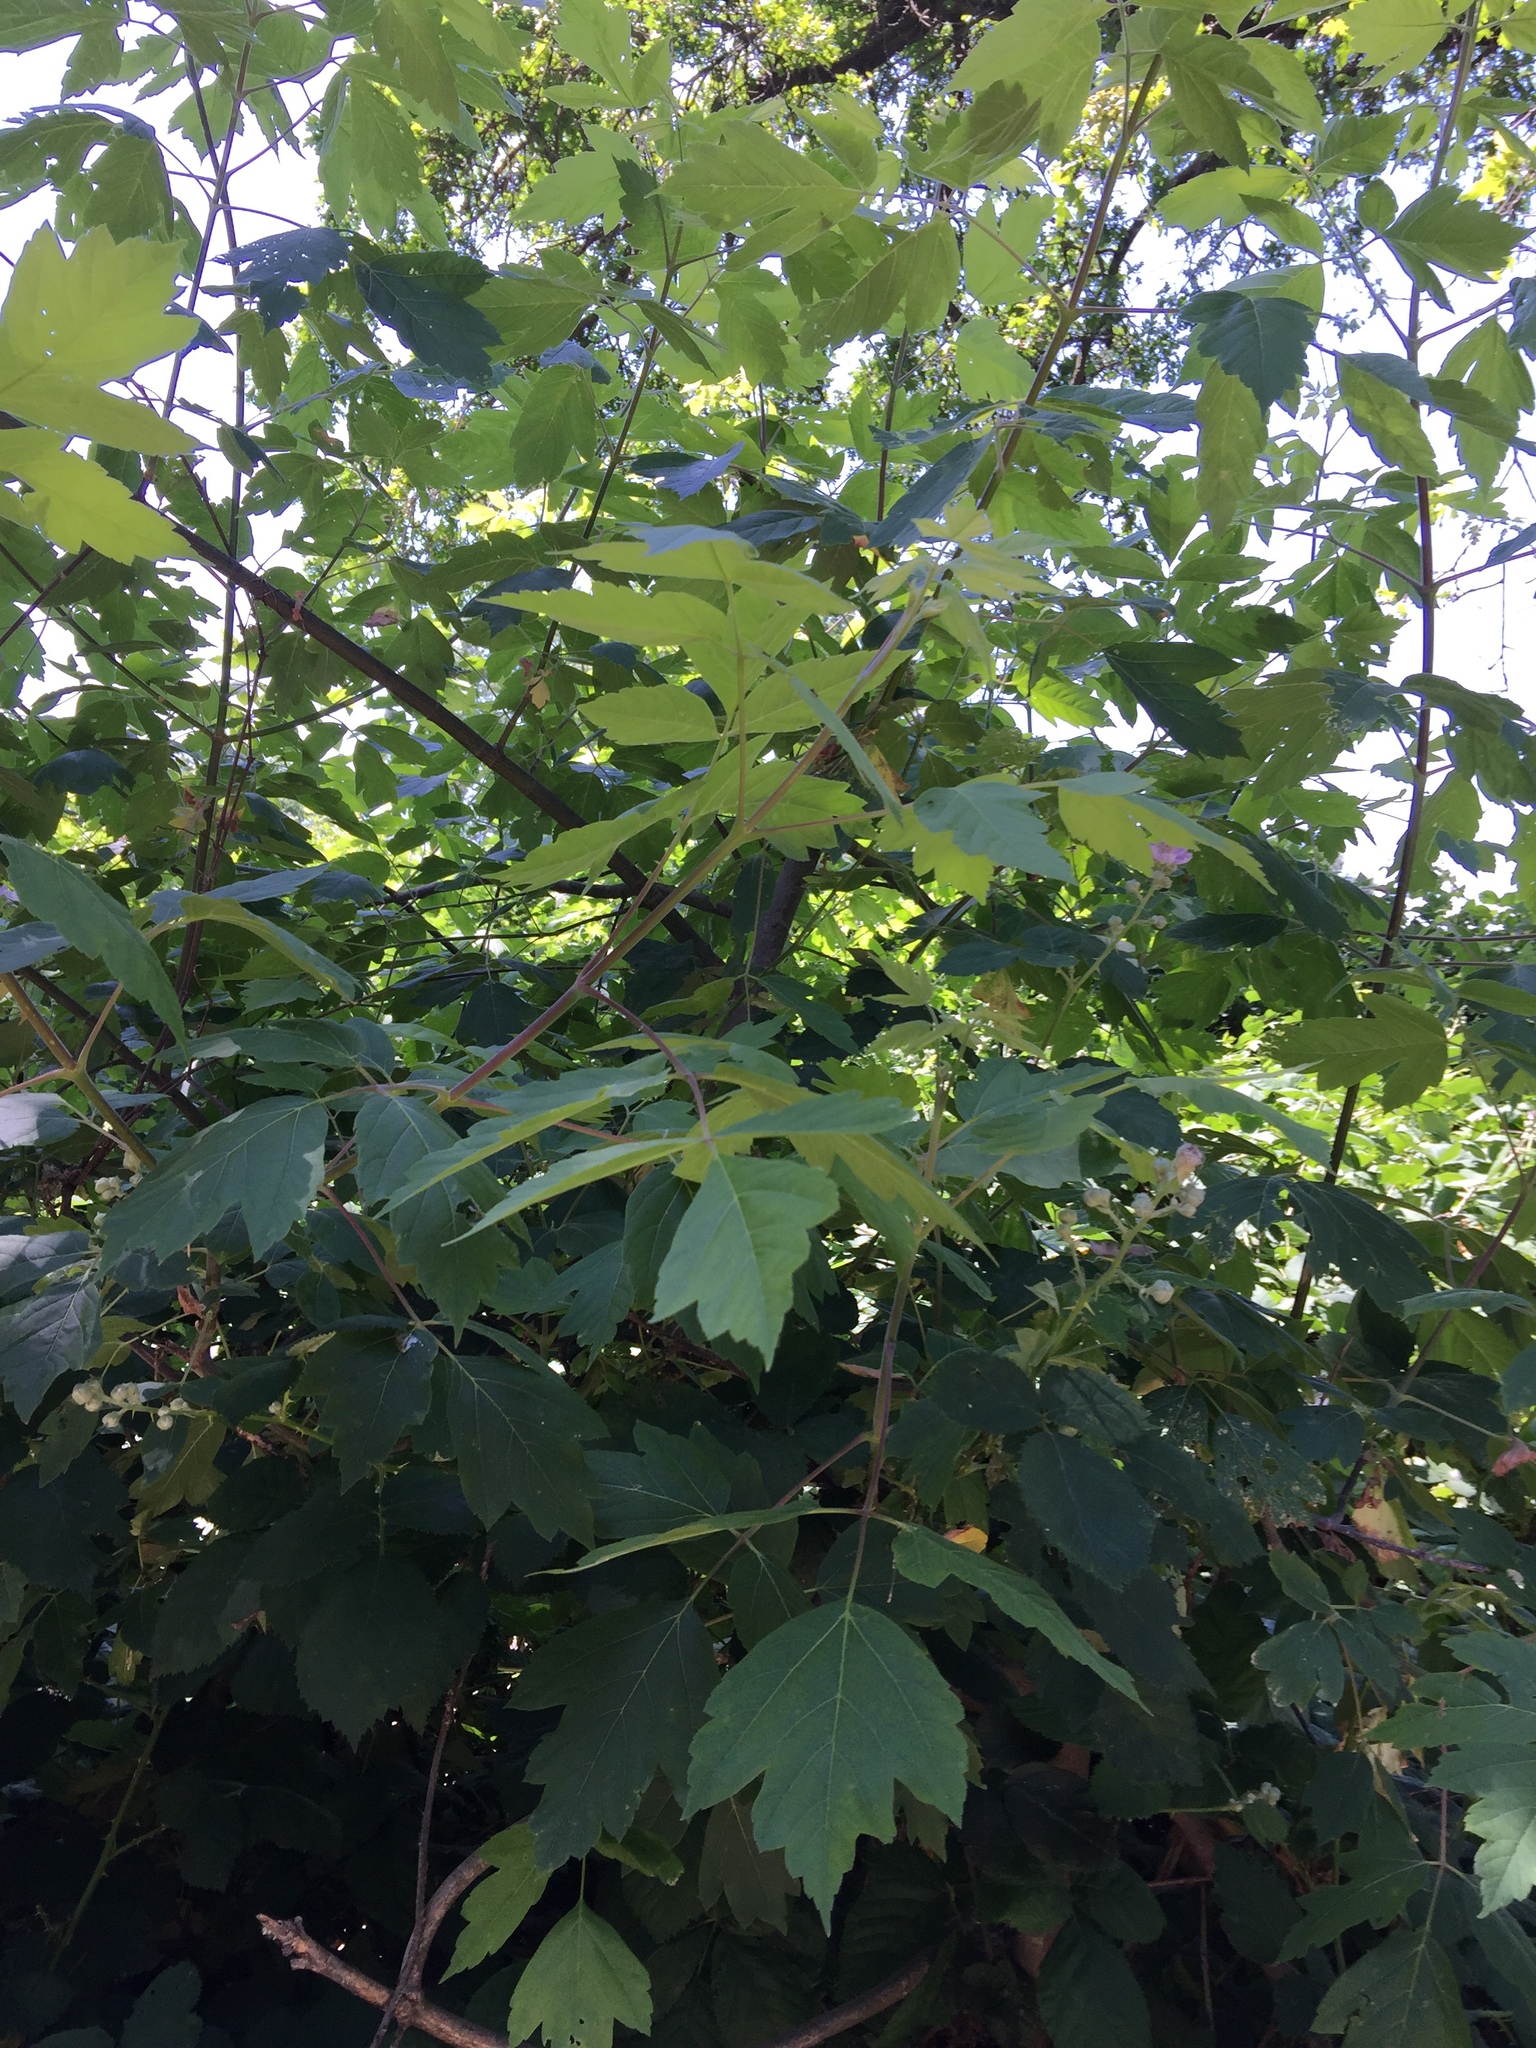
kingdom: Plantae
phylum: Tracheophyta
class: Magnoliopsida
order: Sapindales
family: Sapindaceae
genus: Acer
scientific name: Acer negundo
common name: Ashleaf maple
